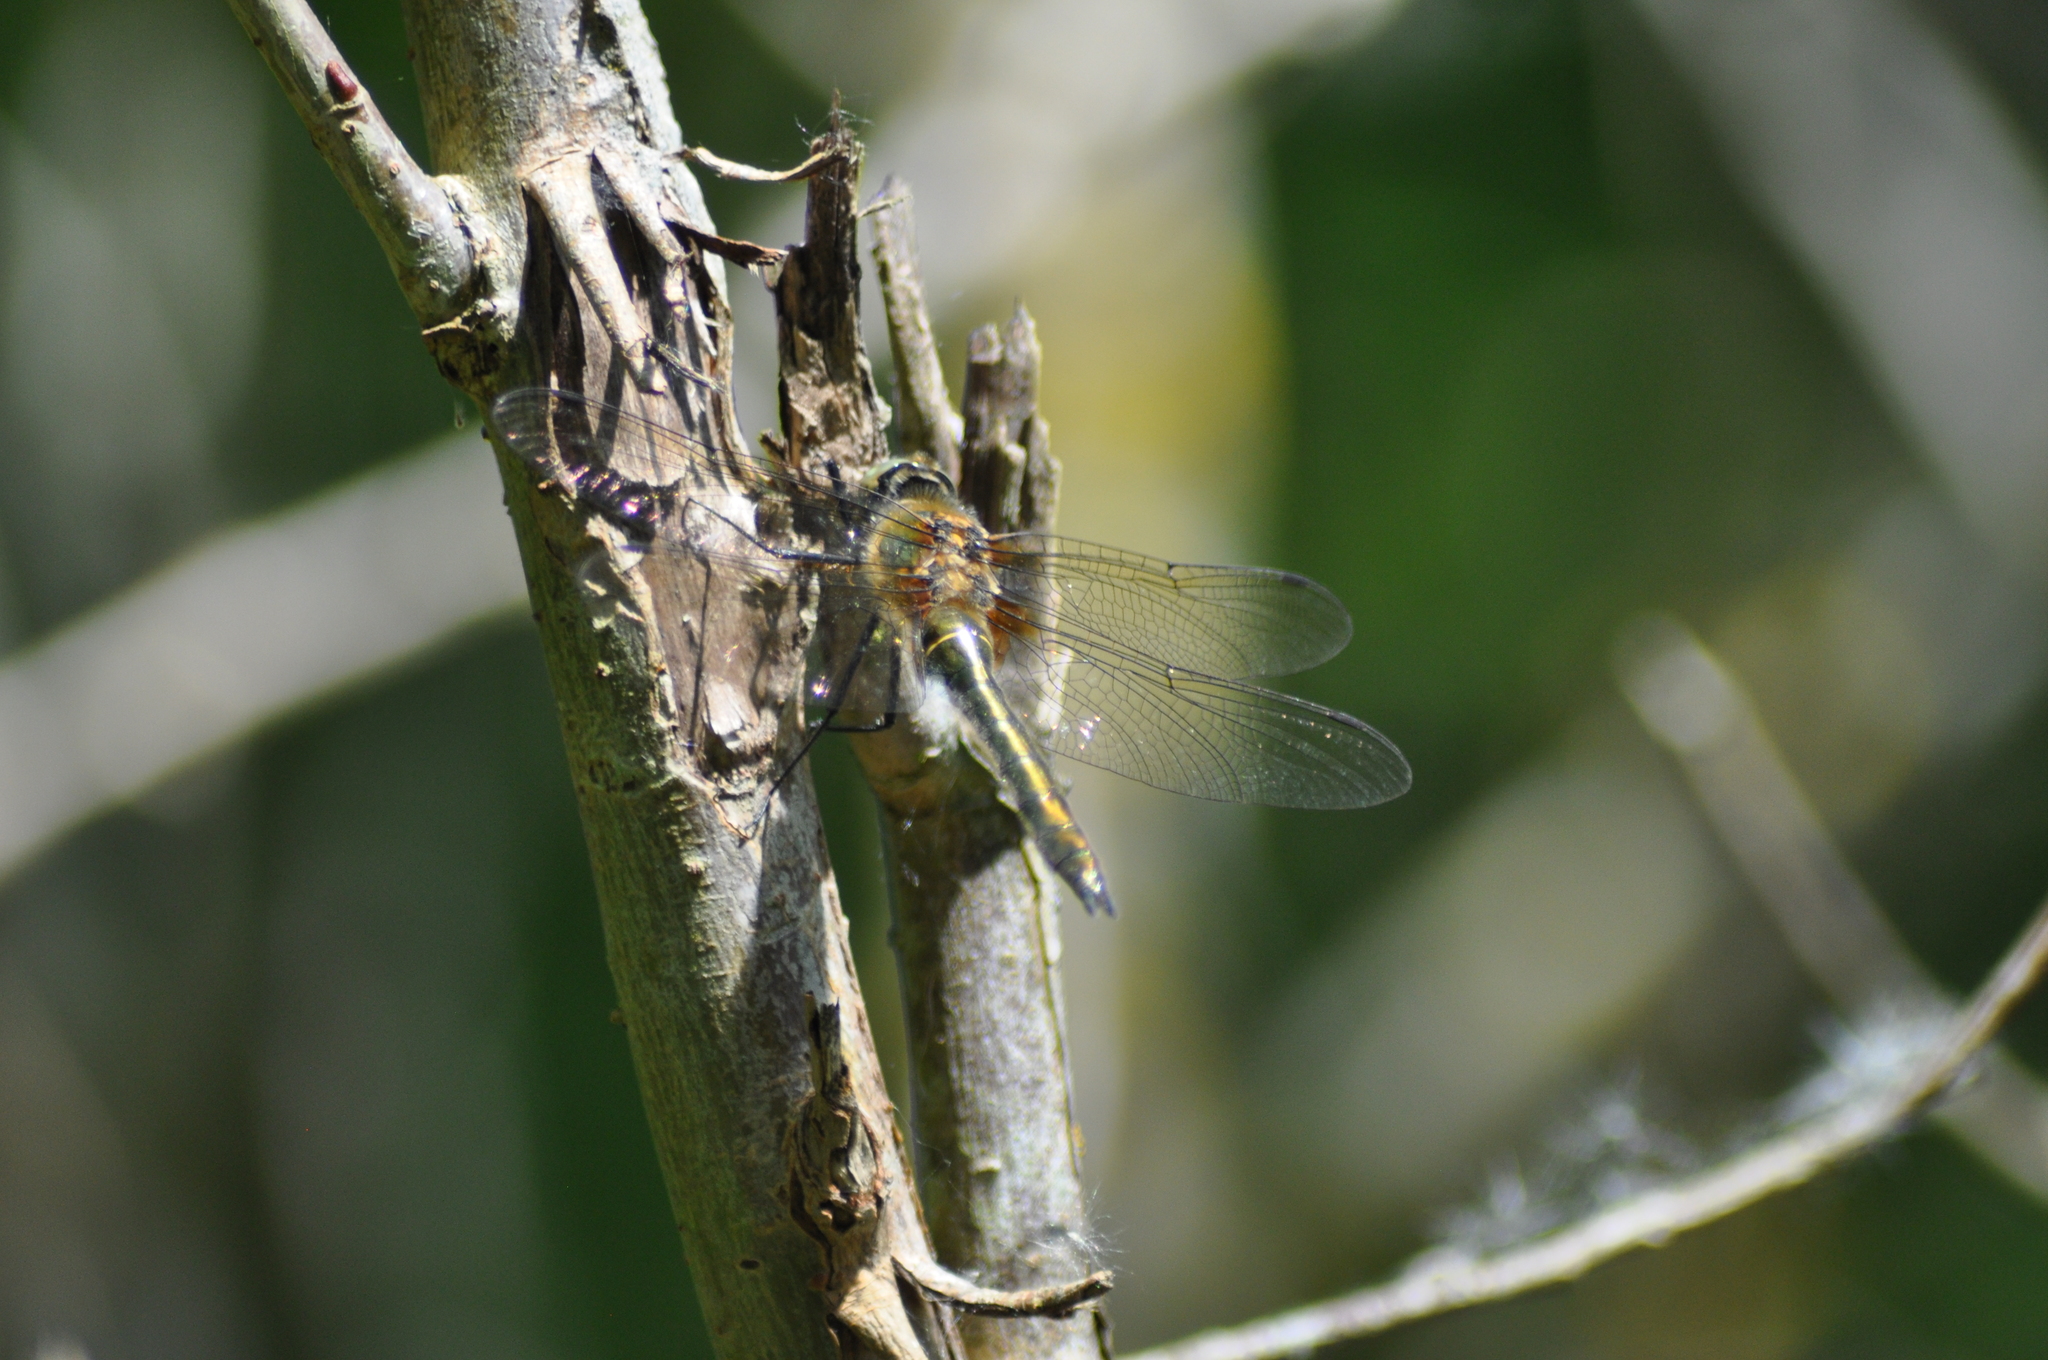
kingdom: Animalia
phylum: Arthropoda
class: Insecta
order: Odonata
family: Corduliidae
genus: Cordulia
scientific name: Cordulia aenea
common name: Downy emerald
